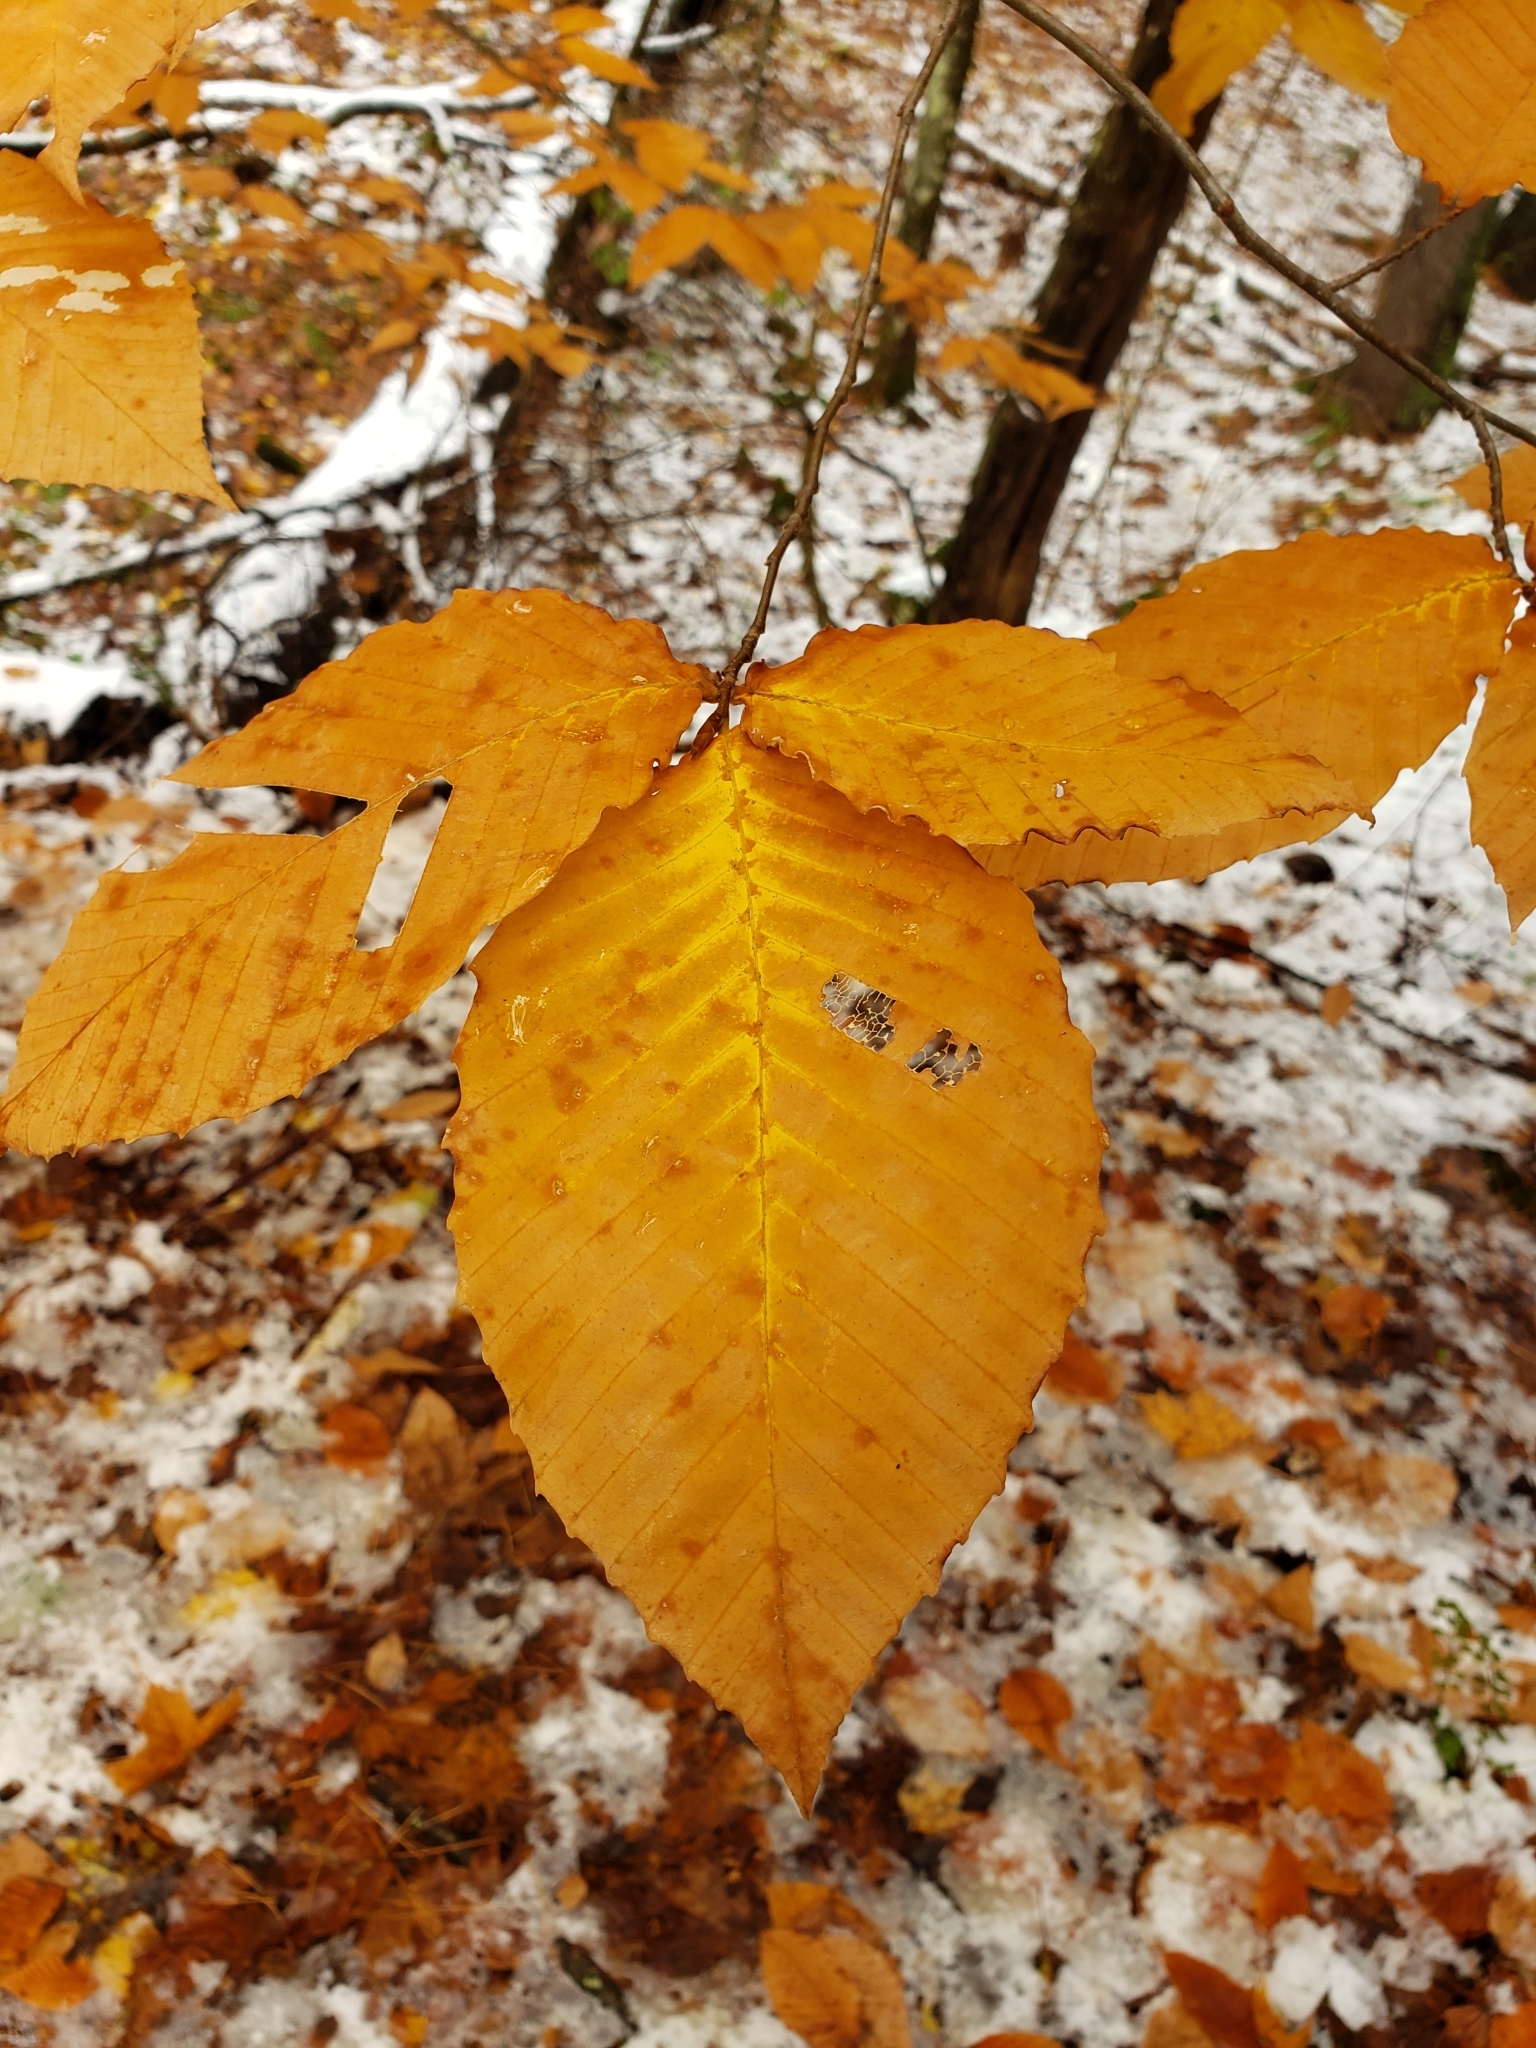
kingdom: Plantae
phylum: Tracheophyta
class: Magnoliopsida
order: Fagales
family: Fagaceae
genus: Fagus
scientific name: Fagus grandifolia
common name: American beech
